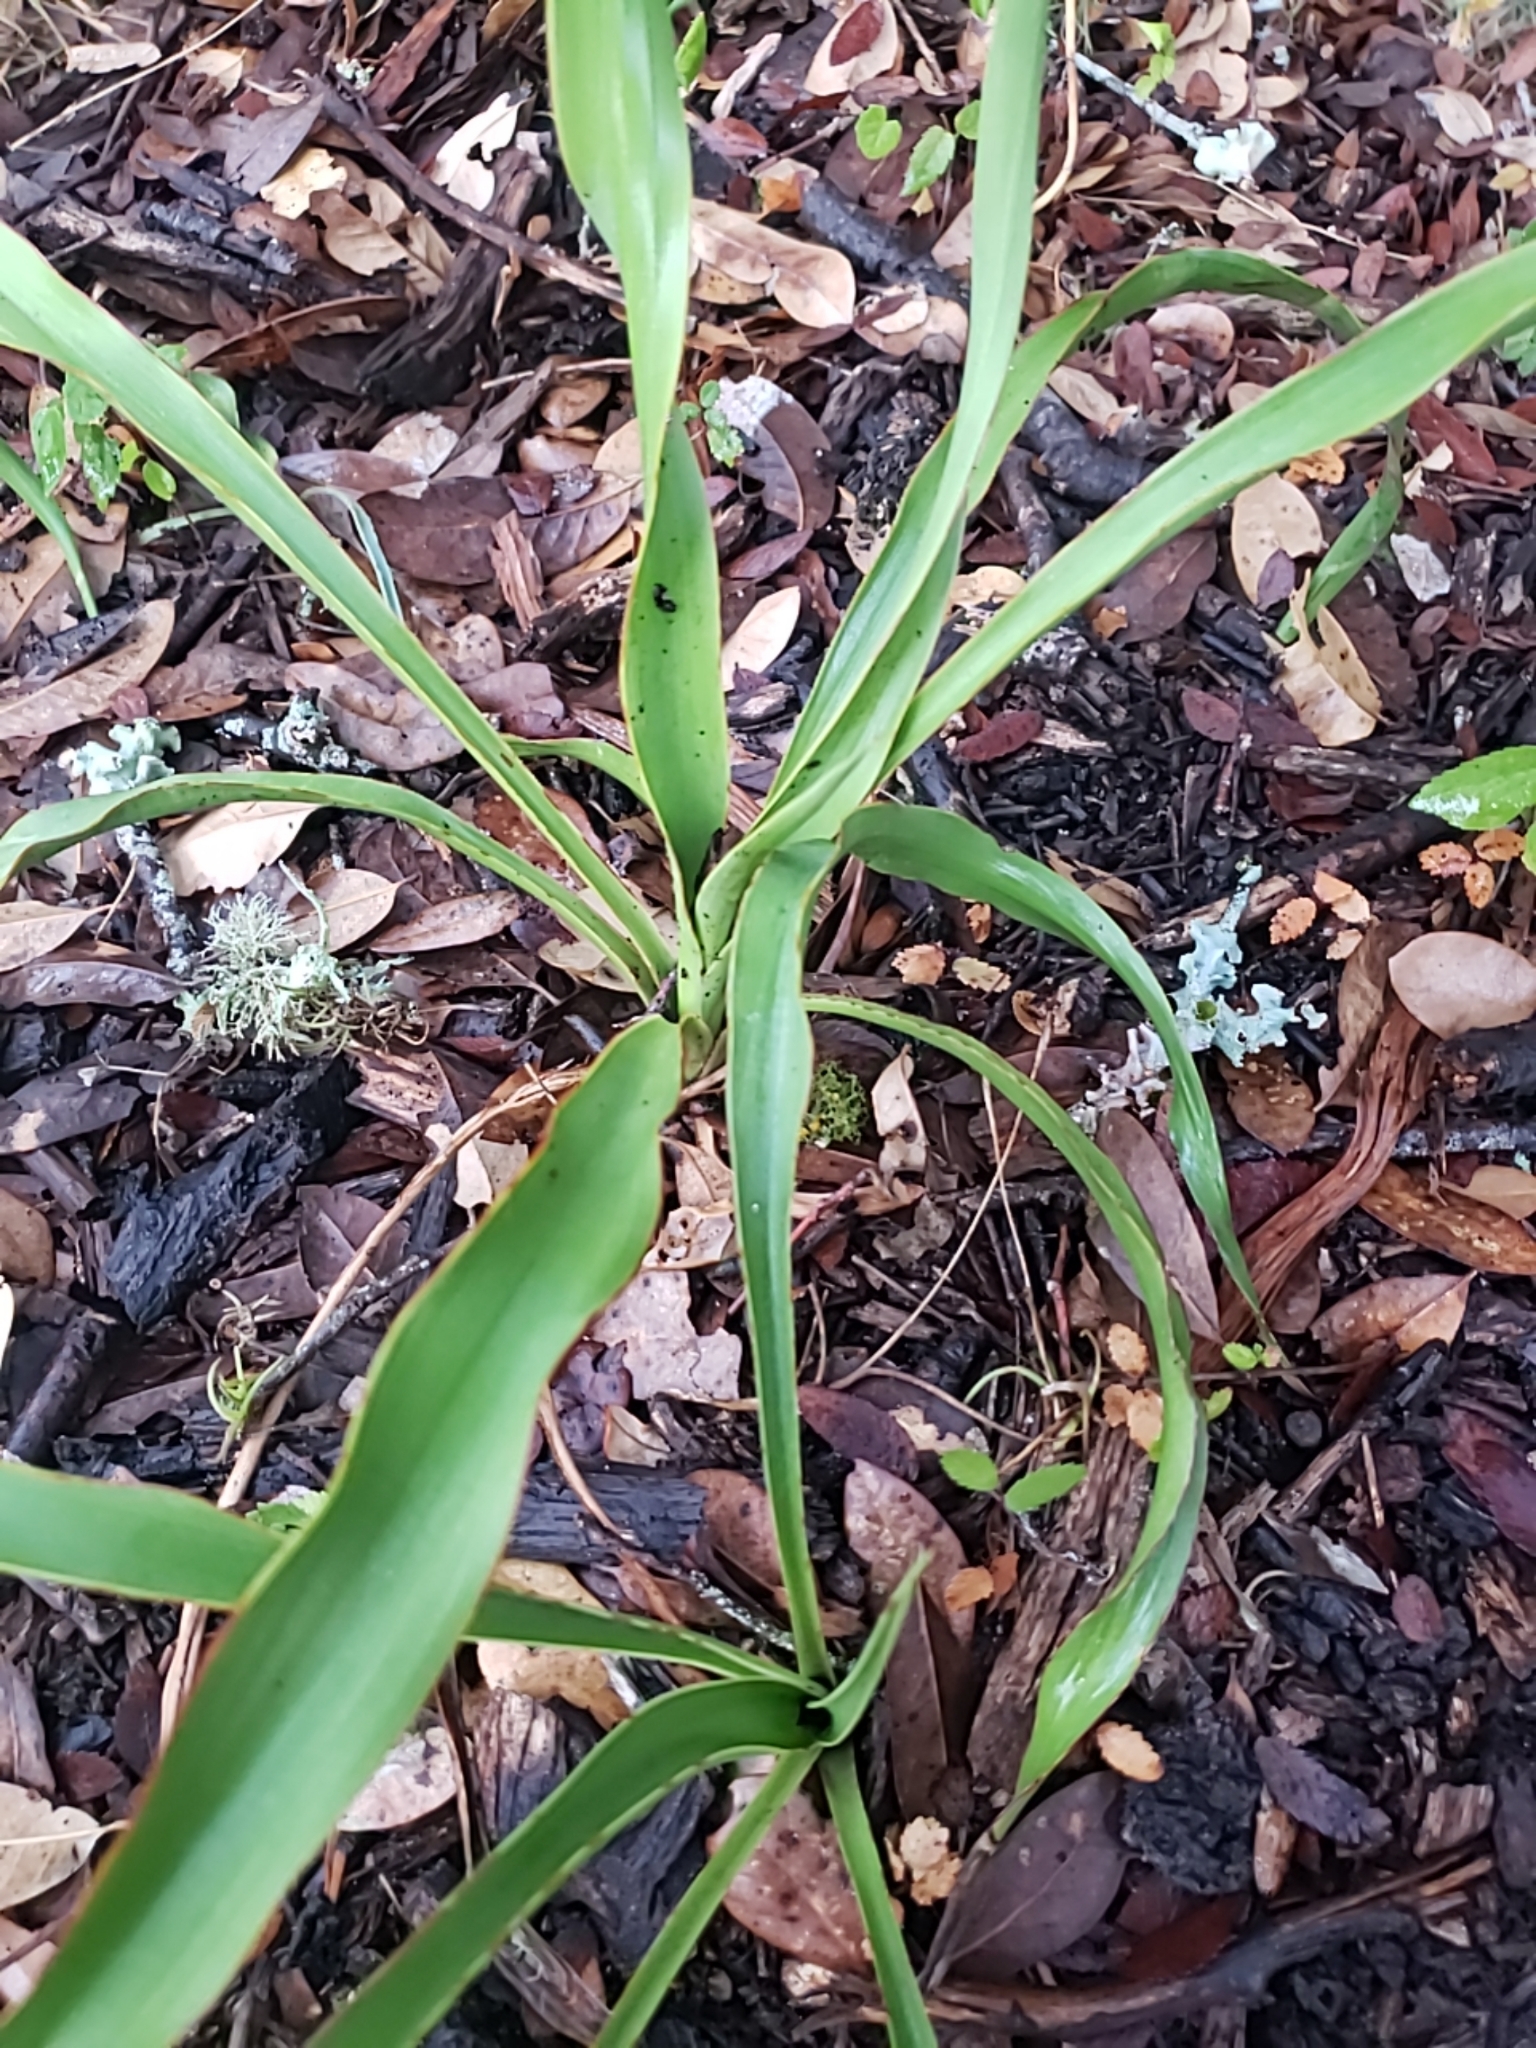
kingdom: Plantae
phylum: Tracheophyta
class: Liliopsida
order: Asparagales
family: Asparagaceae
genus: Yucca
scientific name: Yucca rupicola
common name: Twisted-leaf spanish-dagger
